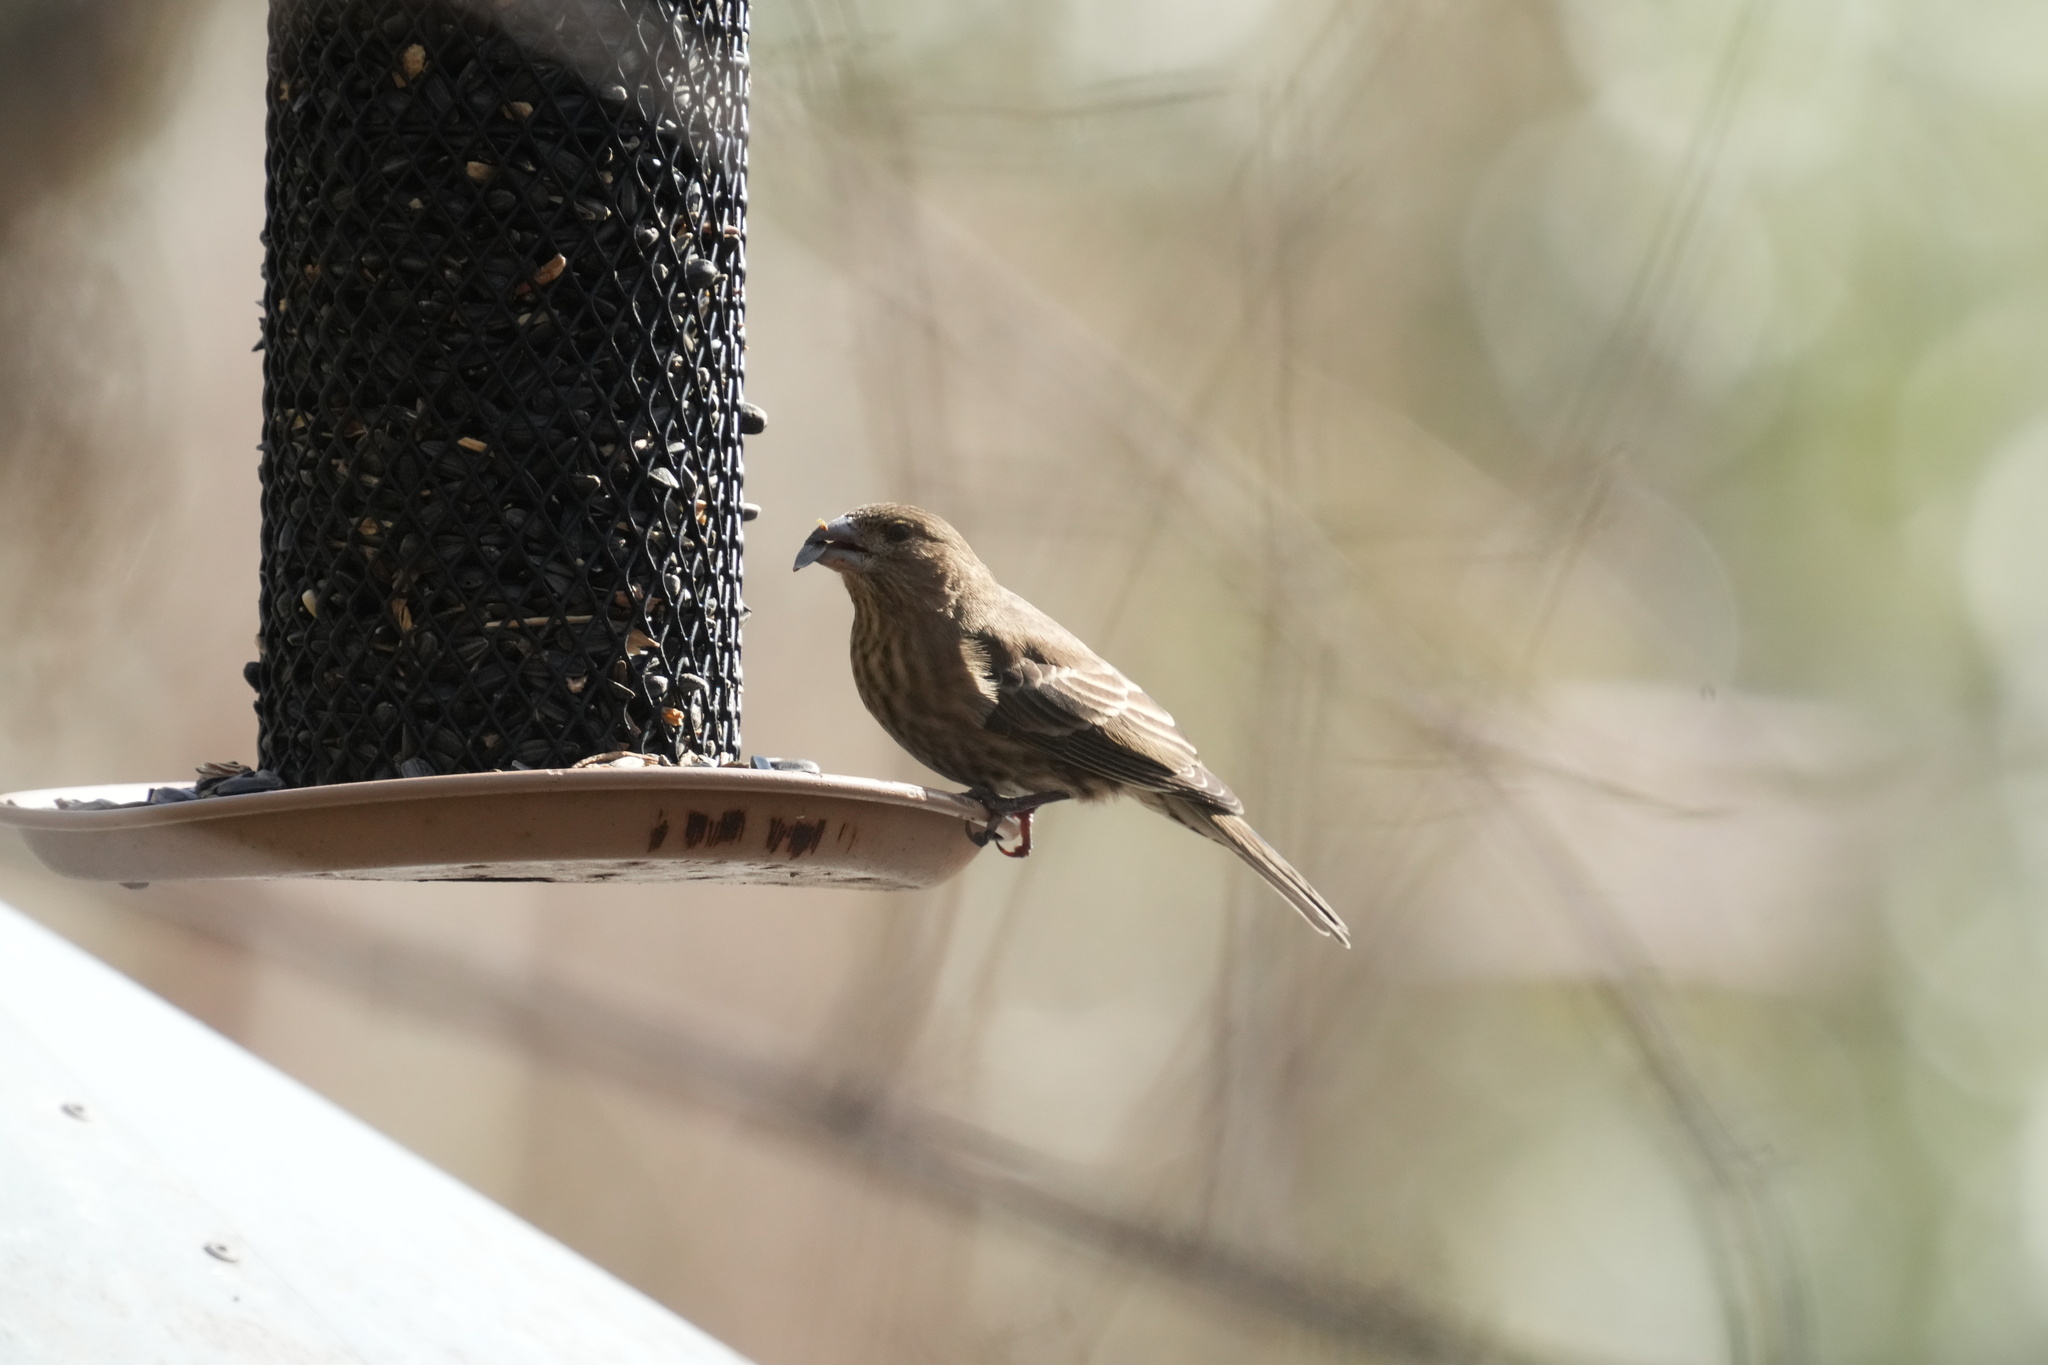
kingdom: Animalia
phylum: Chordata
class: Aves
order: Passeriformes
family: Fringillidae
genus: Haemorhous
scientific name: Haemorhous mexicanus
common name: House finch
